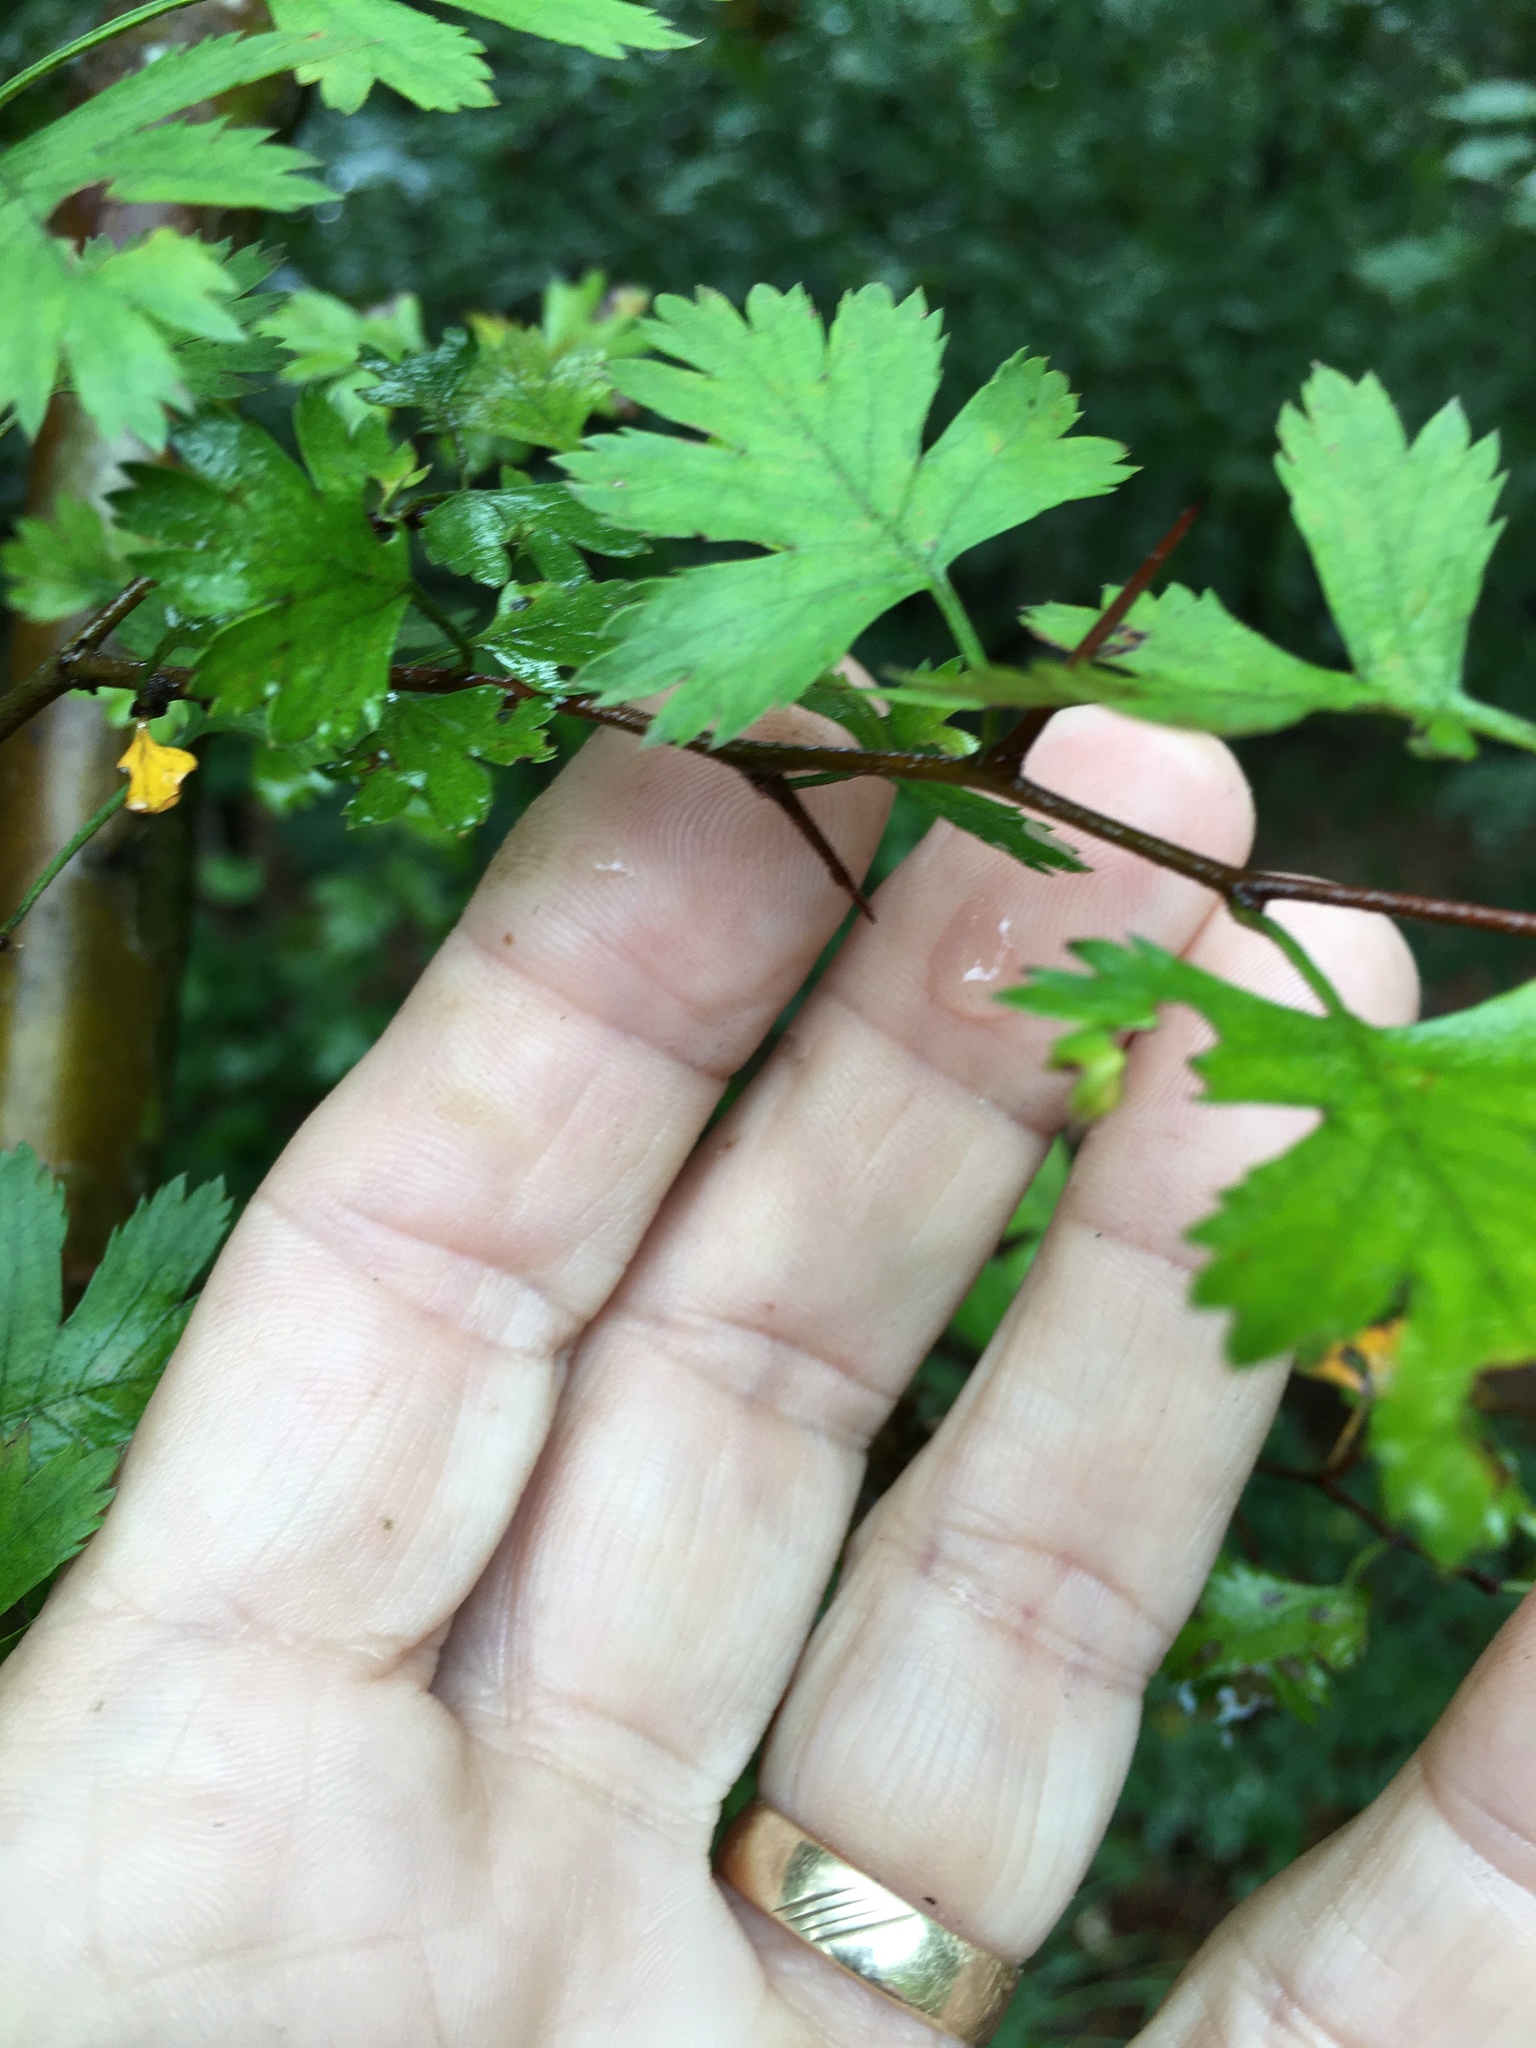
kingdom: Plantae
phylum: Tracheophyta
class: Magnoliopsida
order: Rosales
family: Rosaceae
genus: Crataegus
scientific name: Crataegus marshallii
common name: Parsley-hawthorn
